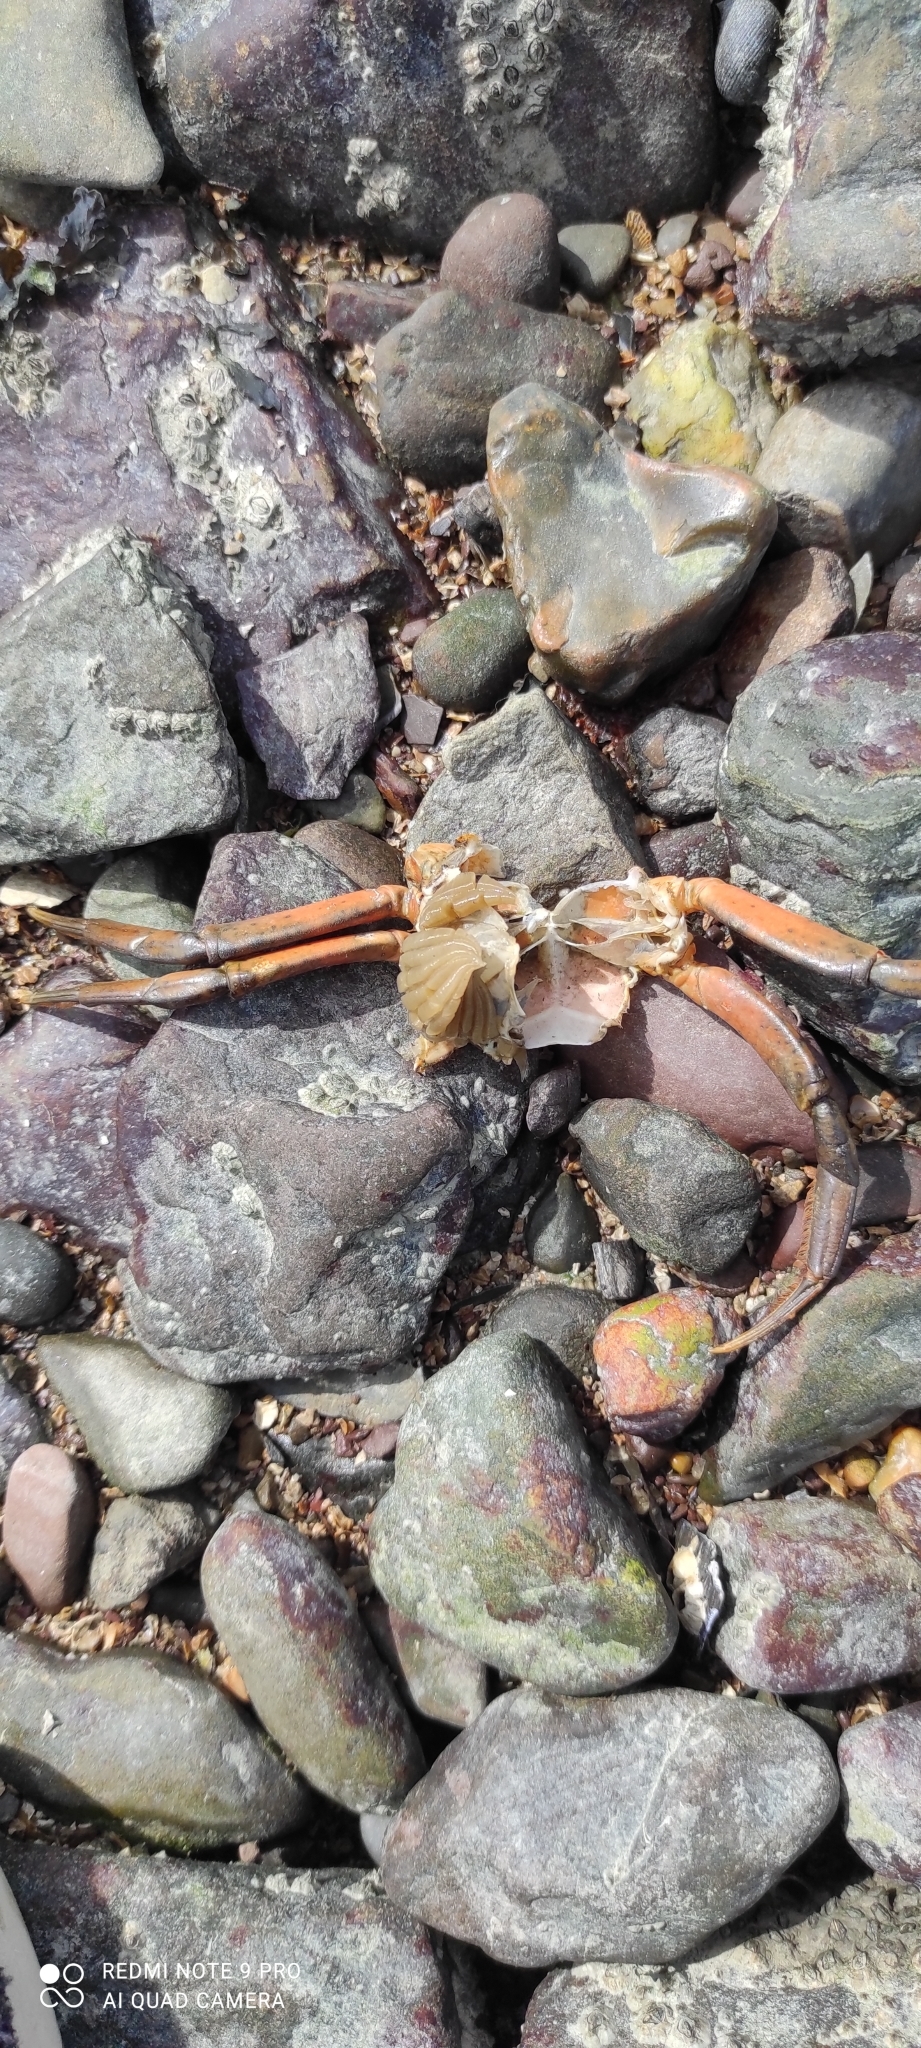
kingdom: Animalia
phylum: Arthropoda
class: Malacostraca
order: Decapoda
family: Carcinidae
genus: Carcinus
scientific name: Carcinus maenas
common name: European green crab
